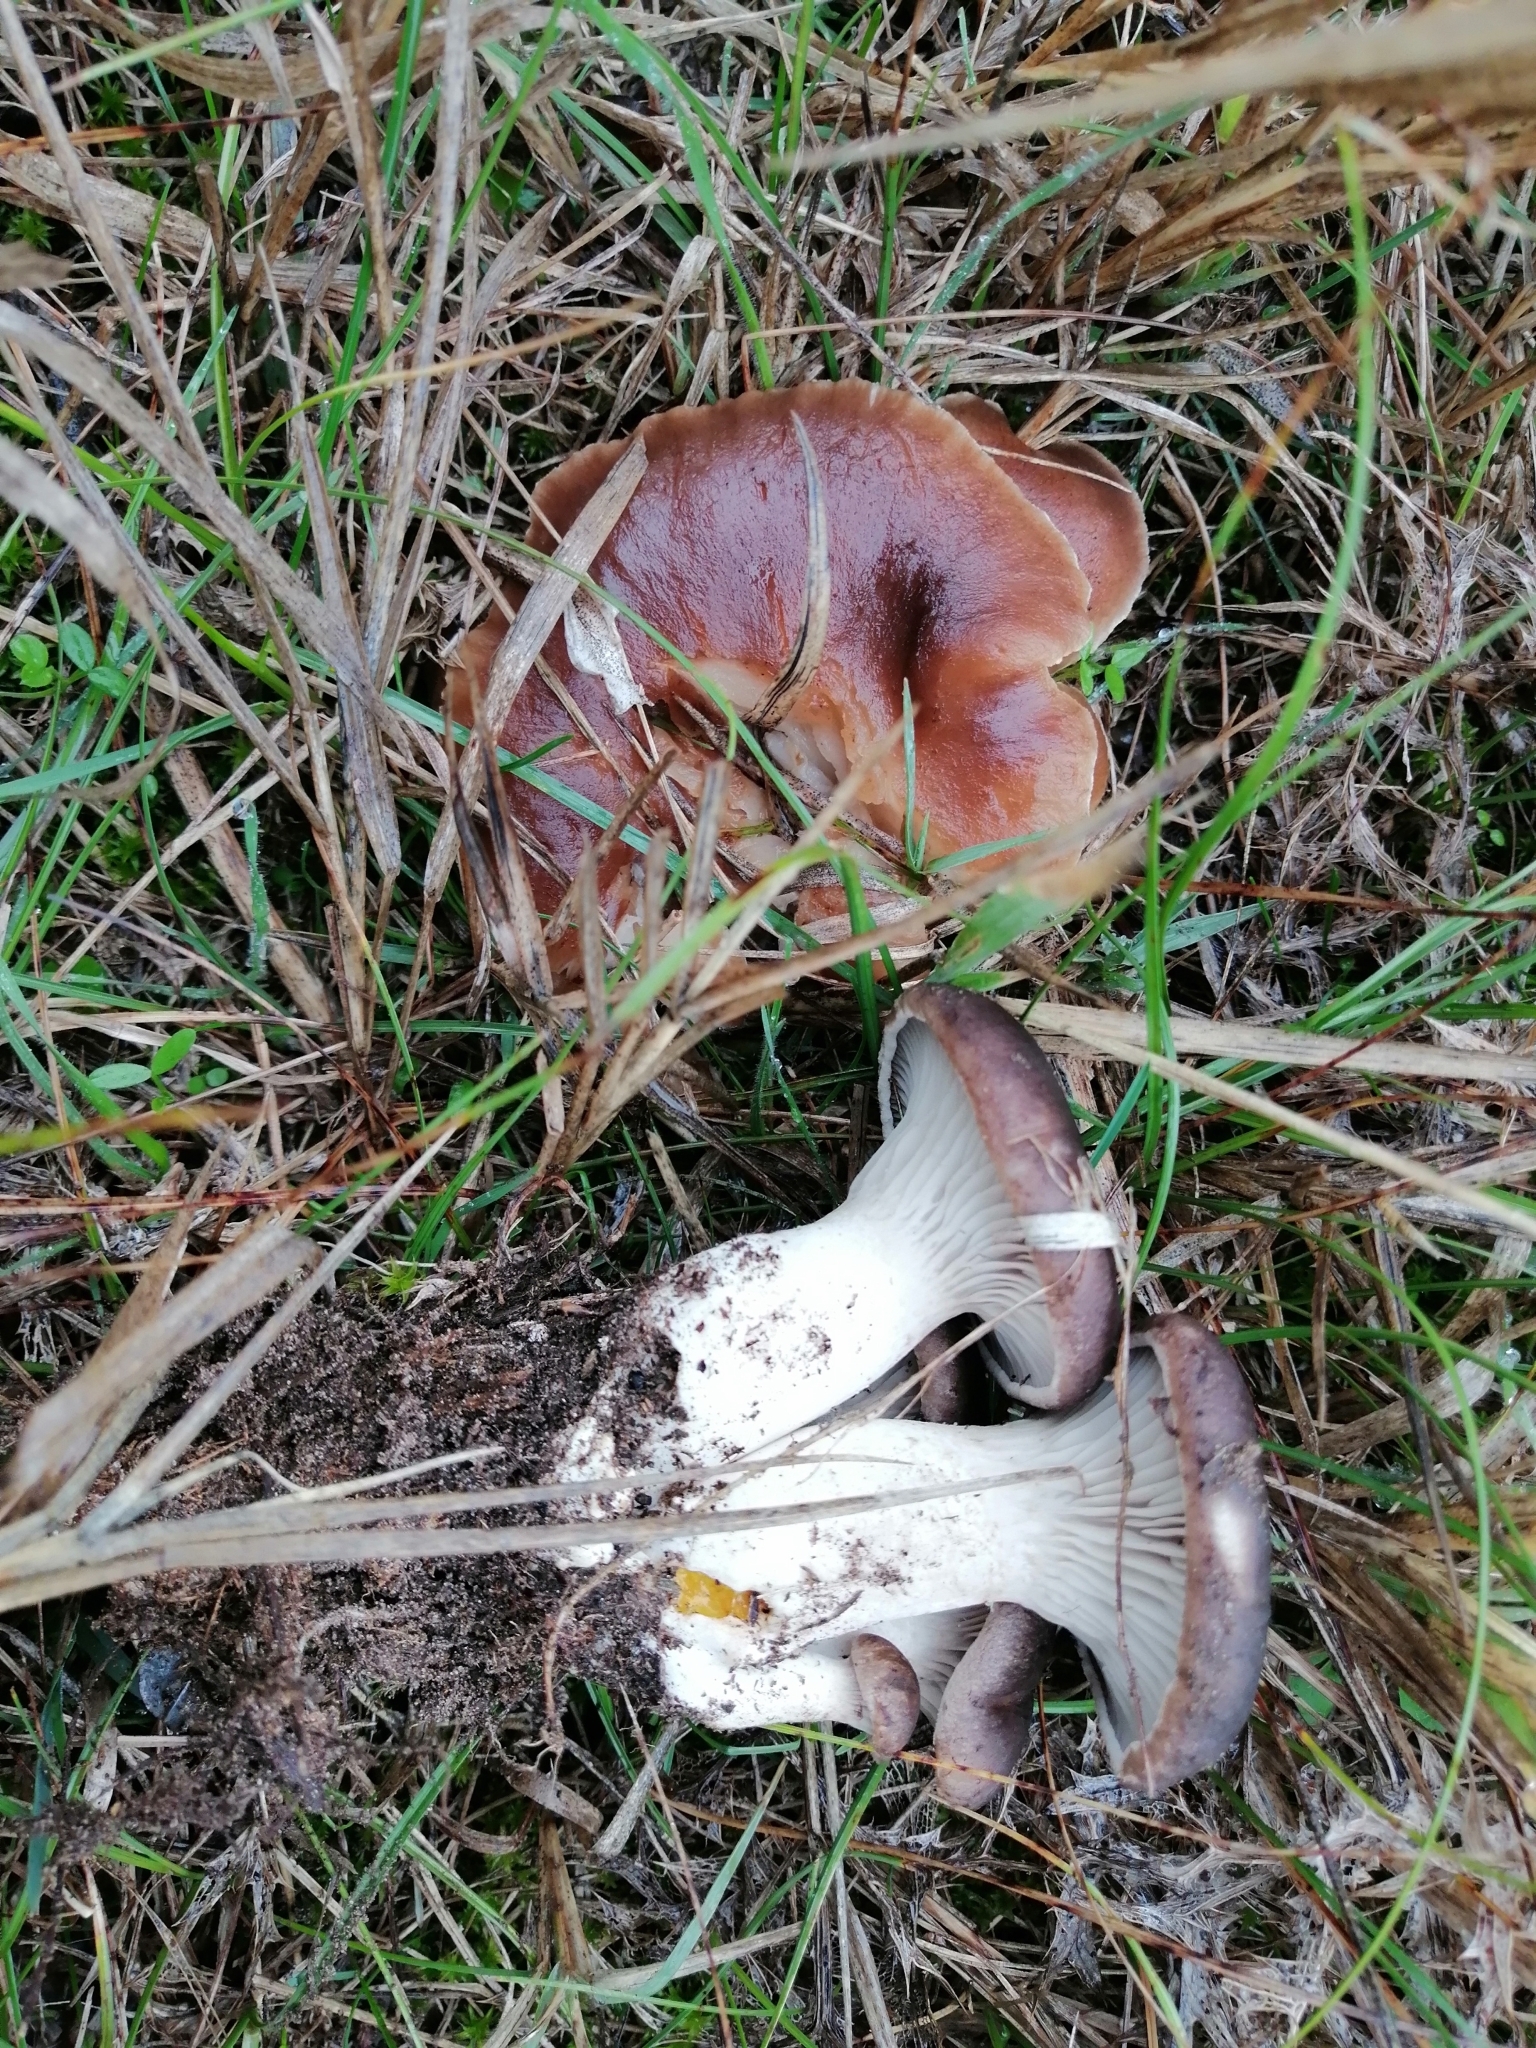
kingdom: Fungi
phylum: Basidiomycota
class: Agaricomycetes
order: Agaricales
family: Pleurotaceae
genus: Pleurotus
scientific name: Pleurotus eryngii
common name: King oyster
